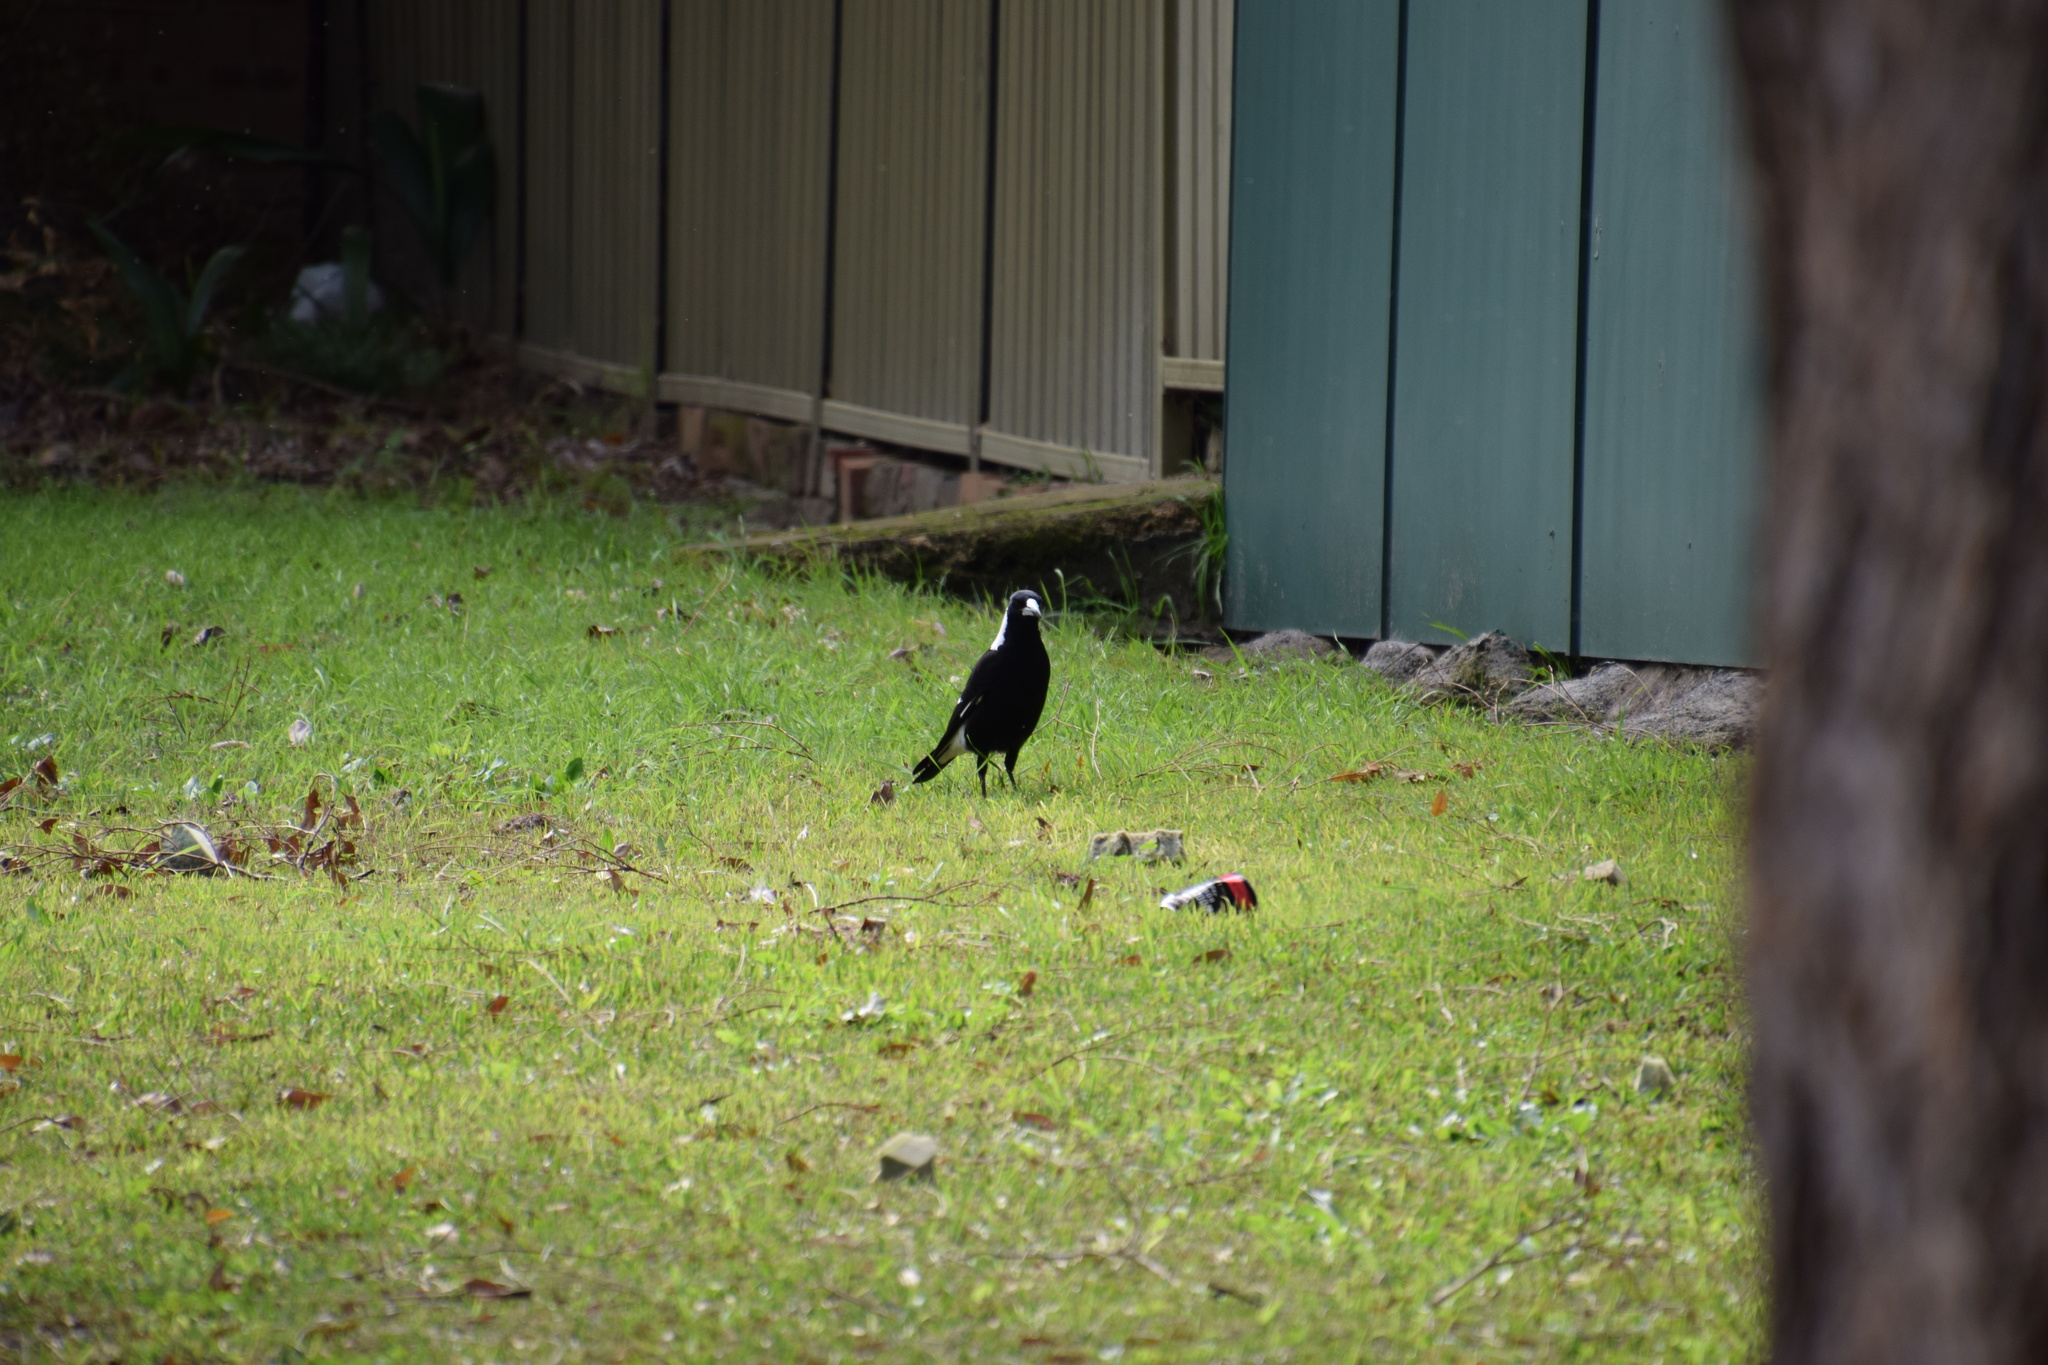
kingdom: Animalia
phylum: Chordata
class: Aves
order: Passeriformes
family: Cracticidae
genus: Gymnorhina
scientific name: Gymnorhina tibicen
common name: Australian magpie
